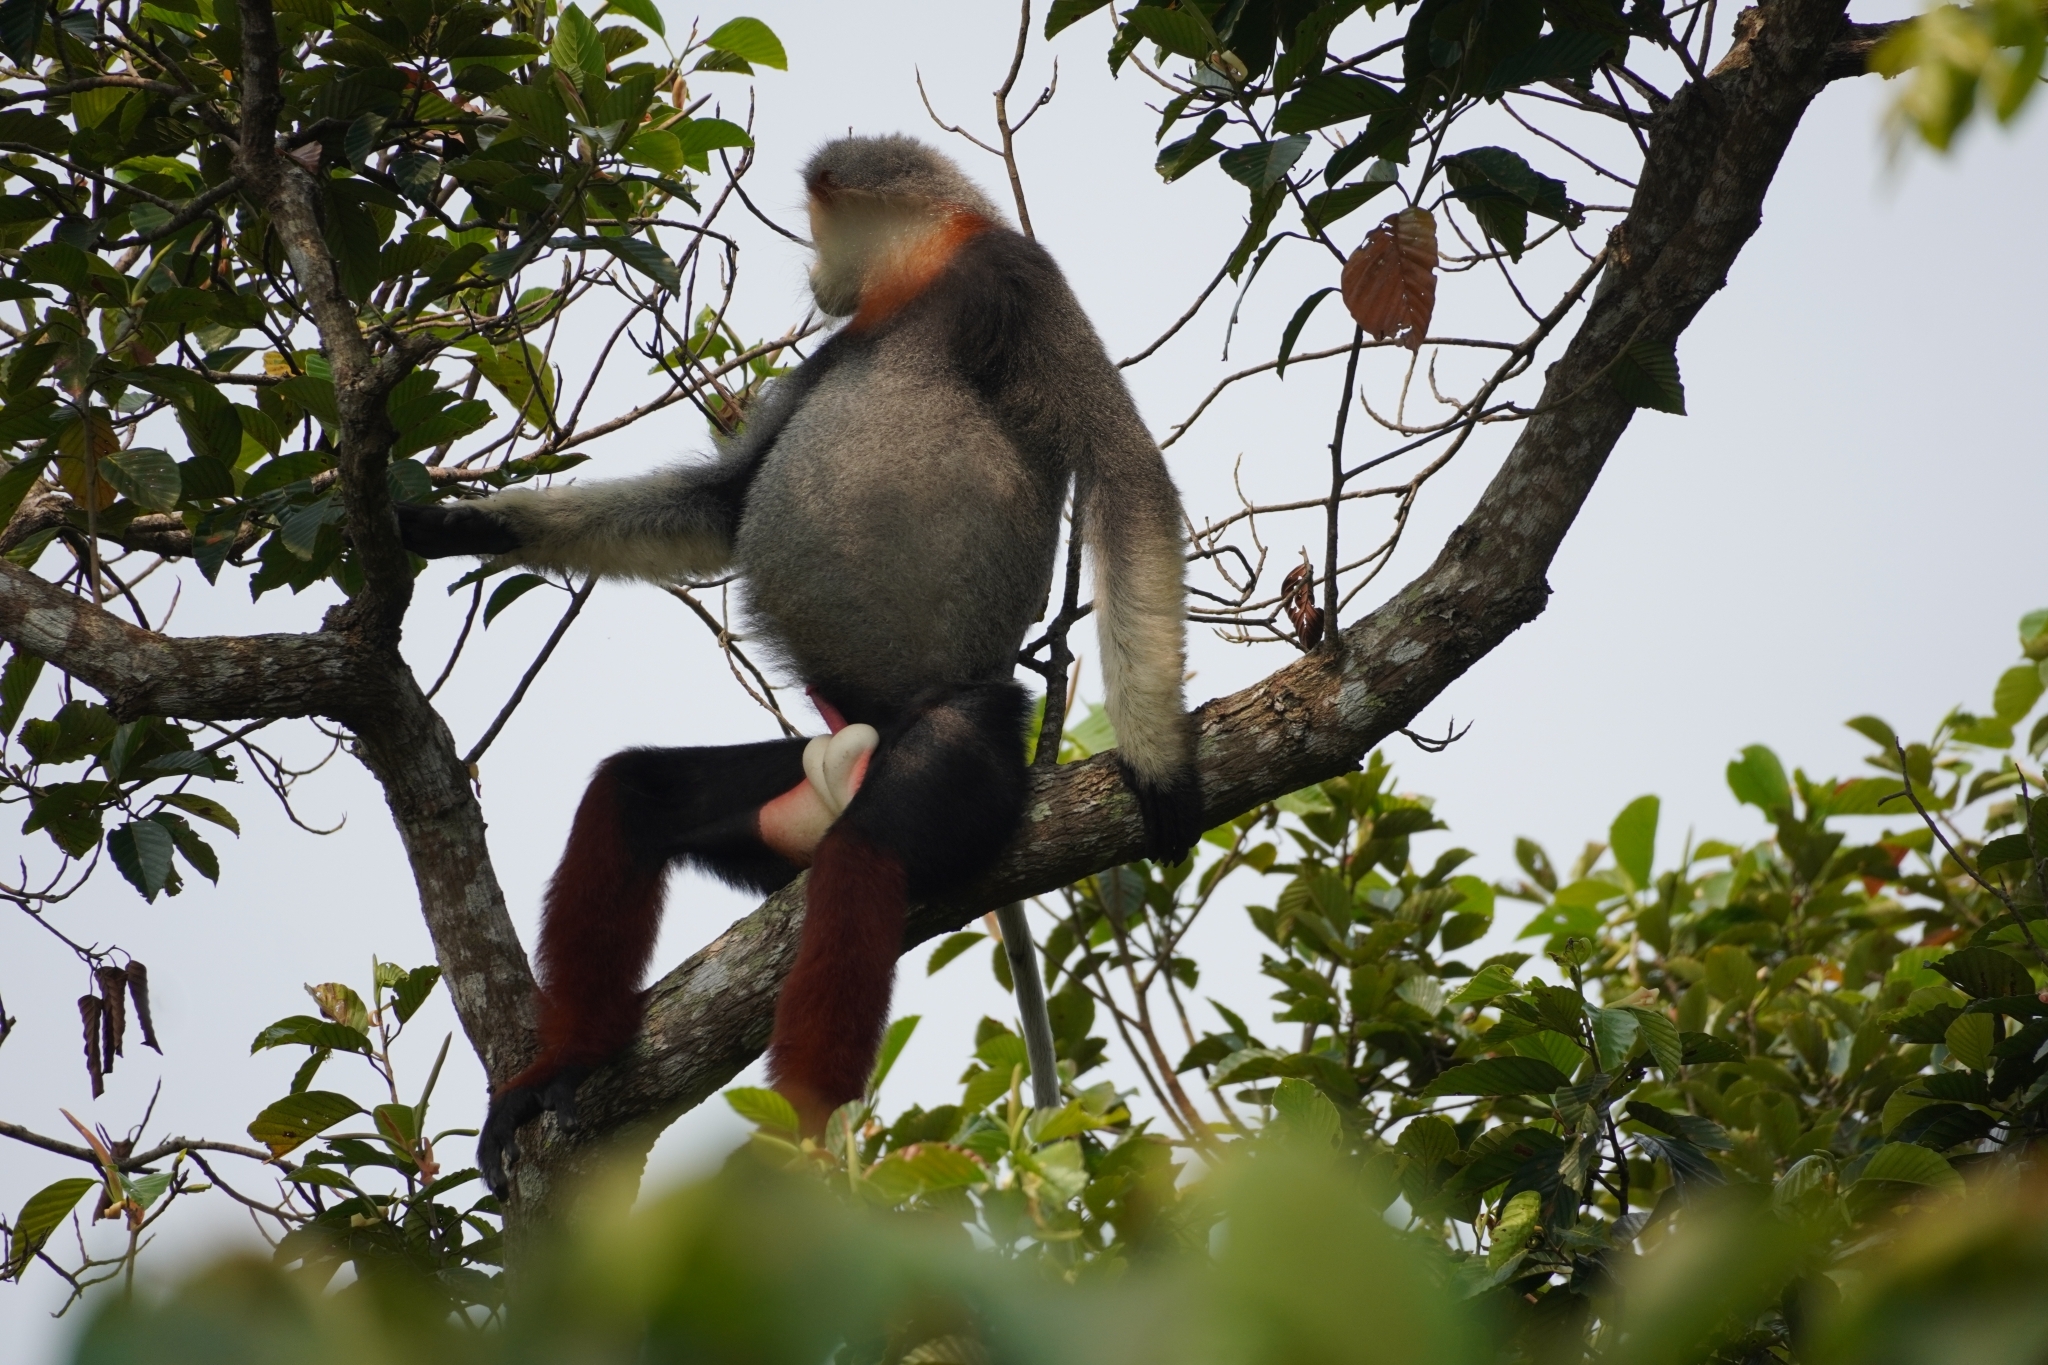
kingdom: Animalia
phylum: Chordata
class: Mammalia
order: Primates
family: Cercopithecidae
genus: Pygathrix
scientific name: Pygathrix nemaeus
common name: Red-shanked douc
